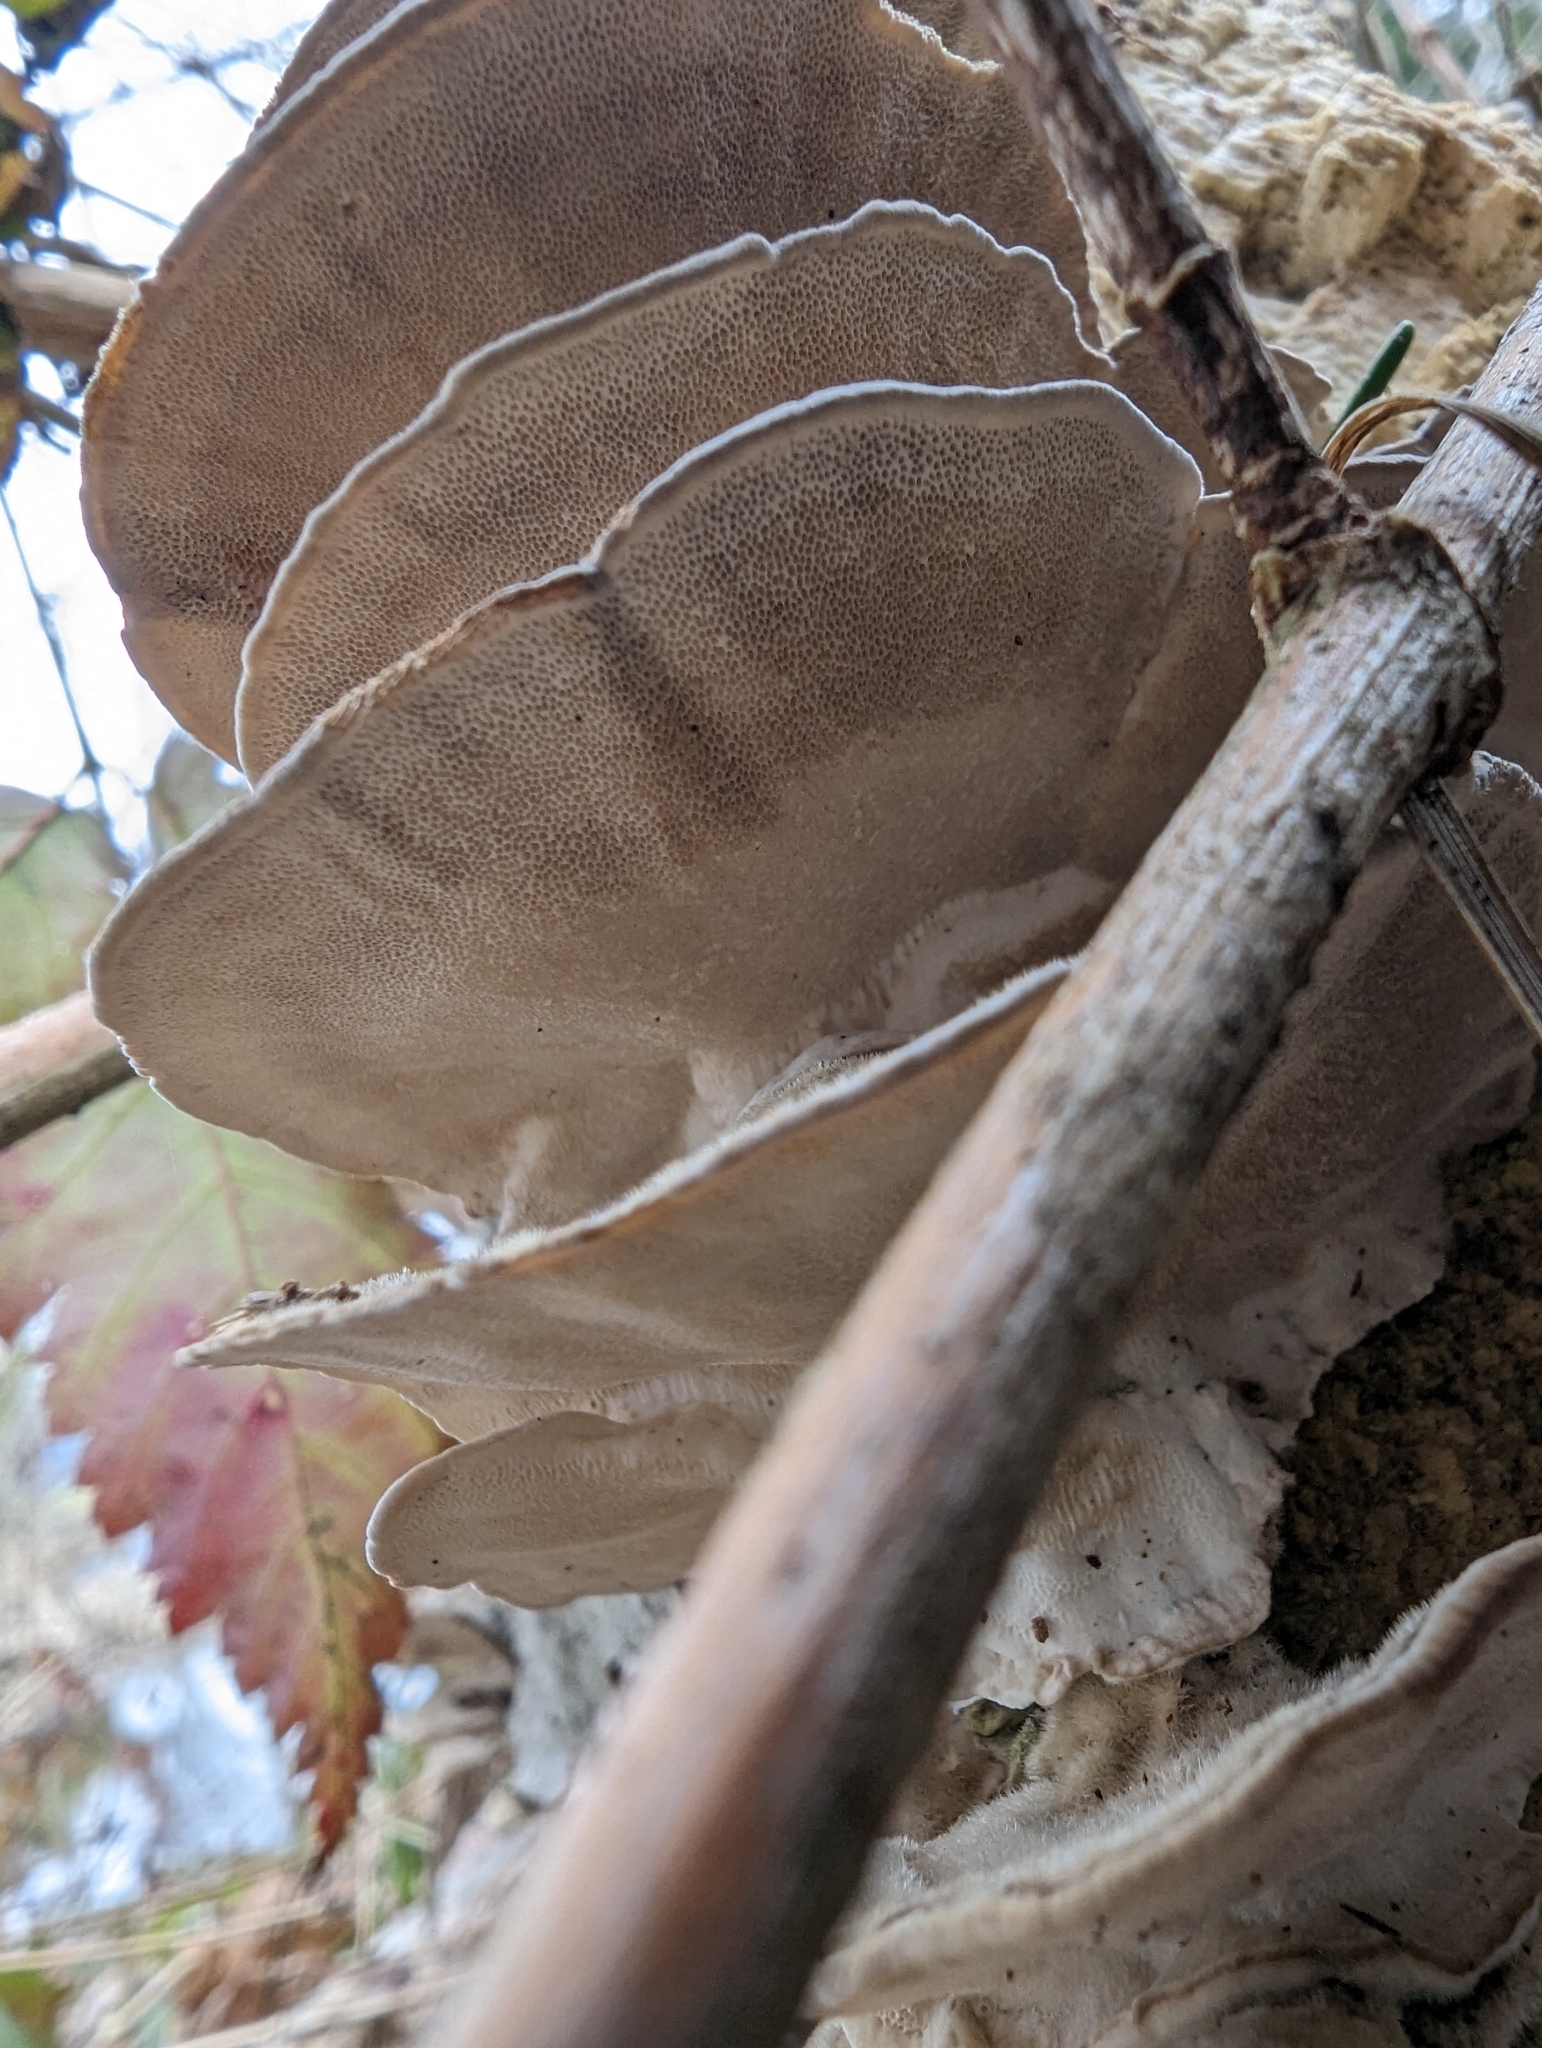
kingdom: Fungi
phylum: Basidiomycota
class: Agaricomycetes
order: Polyporales
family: Polyporaceae
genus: Trametes
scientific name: Trametes versicolor
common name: Turkeytail
